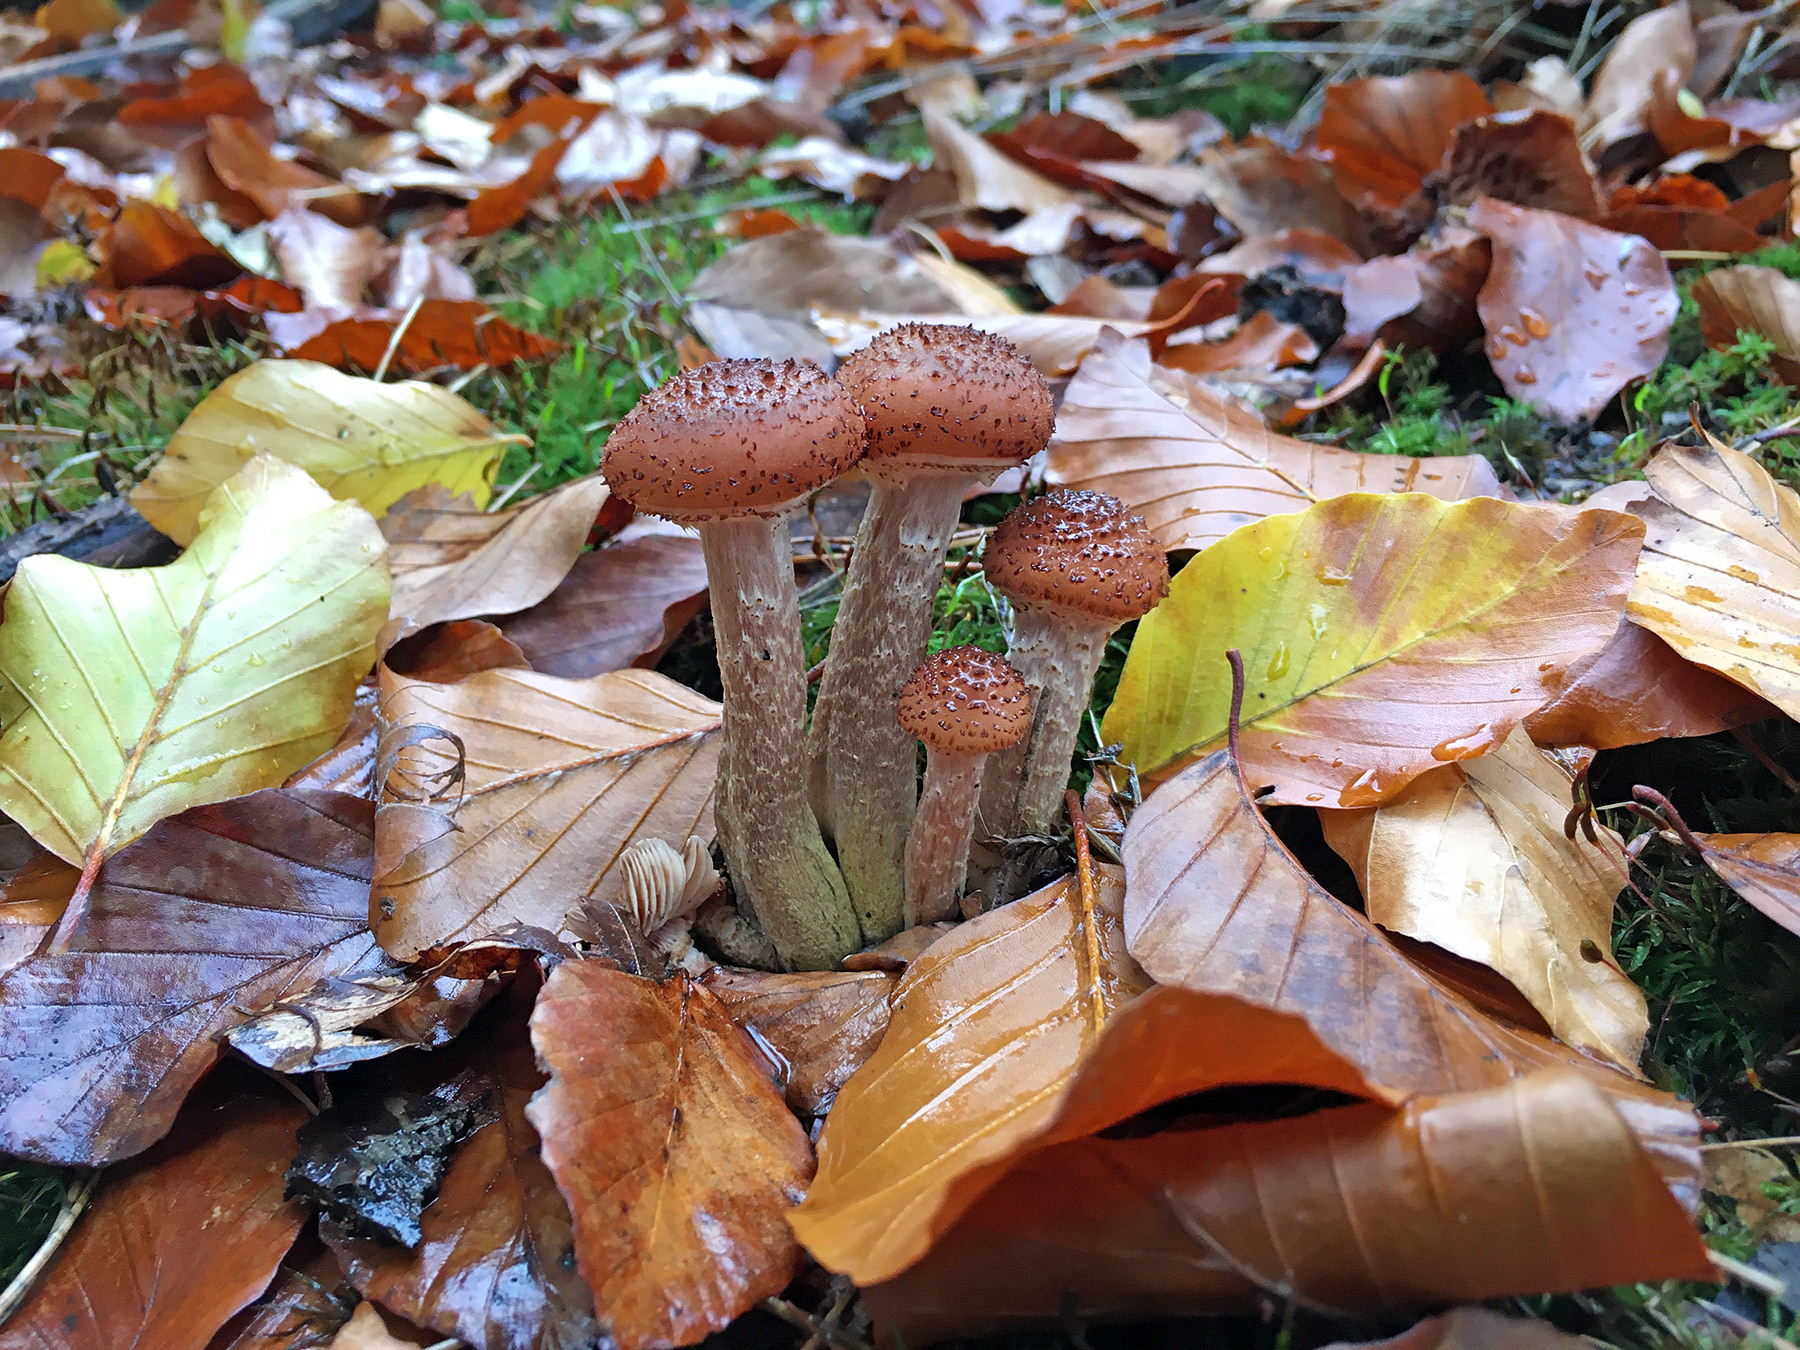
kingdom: Fungi
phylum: Basidiomycota
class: Agaricomycetes
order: Agaricales
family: Physalacriaceae
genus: Armillaria
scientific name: Armillaria ostoyae
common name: Dark honey fungus
